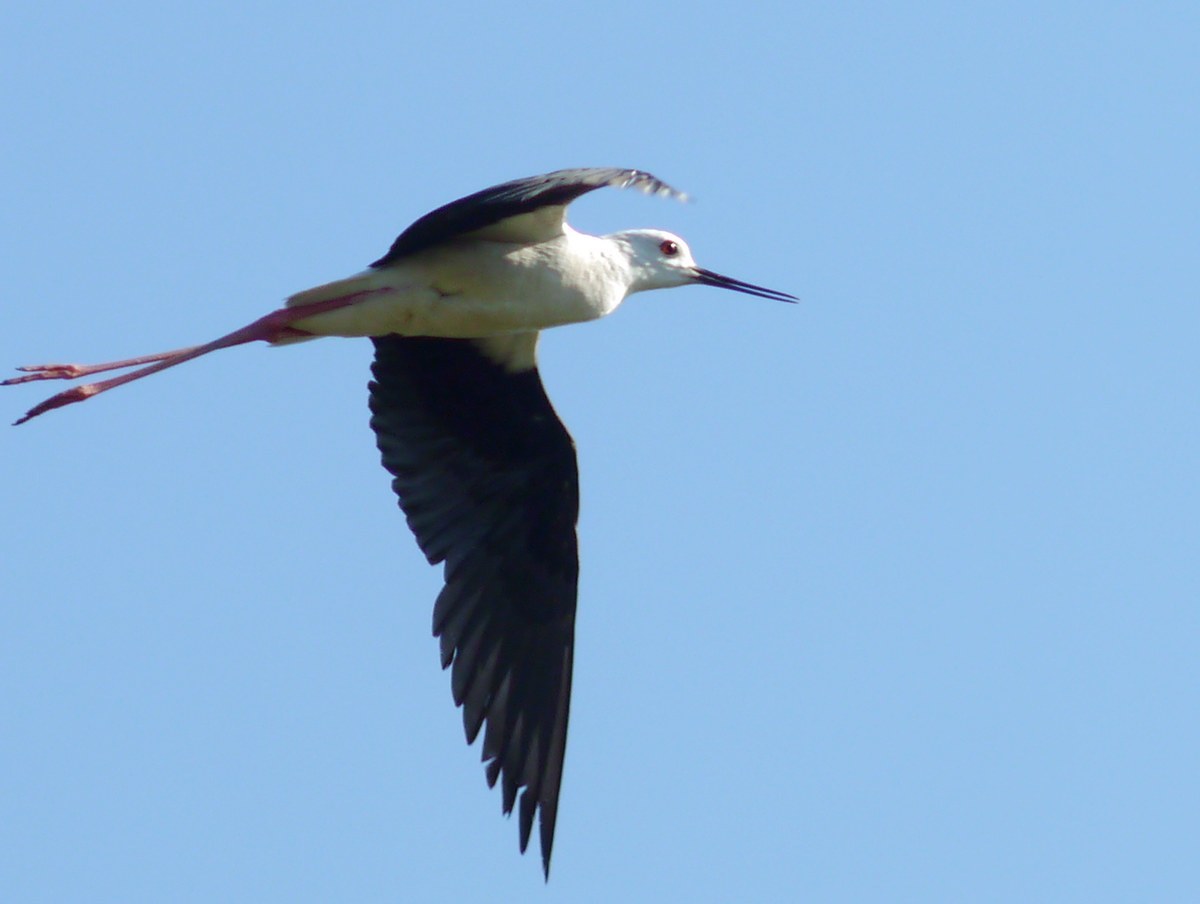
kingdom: Animalia
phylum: Chordata
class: Aves
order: Charadriiformes
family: Recurvirostridae
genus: Himantopus
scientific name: Himantopus himantopus
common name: Black-winged stilt
